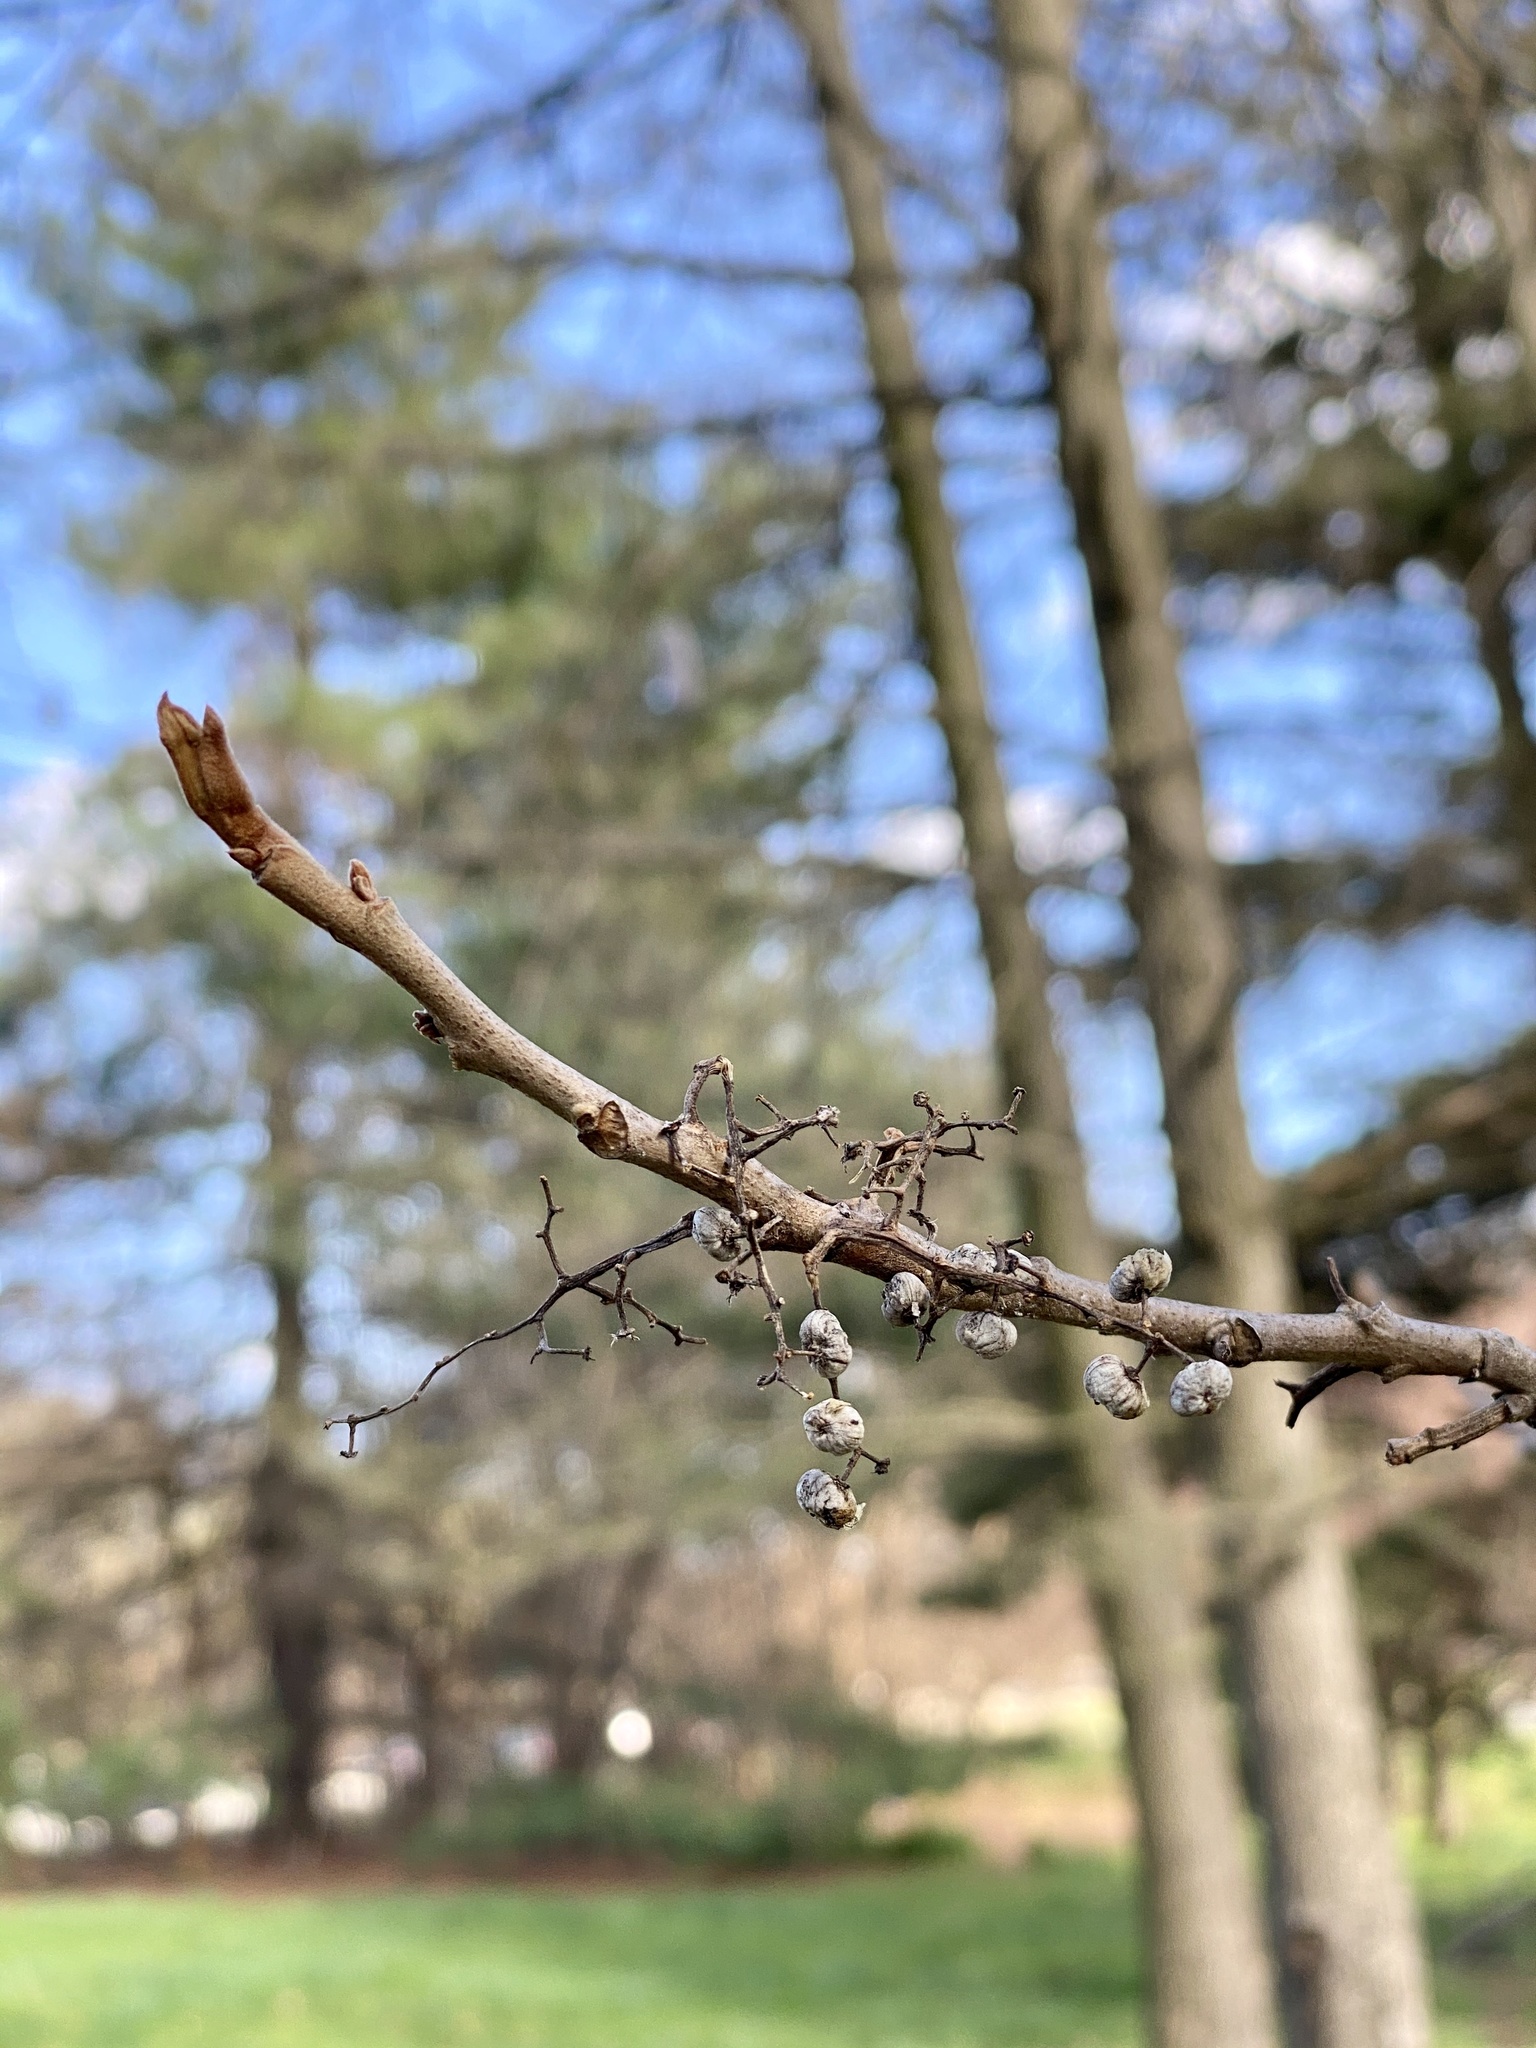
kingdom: Plantae
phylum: Tracheophyta
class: Magnoliopsida
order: Sapindales
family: Anacardiaceae
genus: Toxicodendron
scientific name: Toxicodendron radicans
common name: Poison ivy
